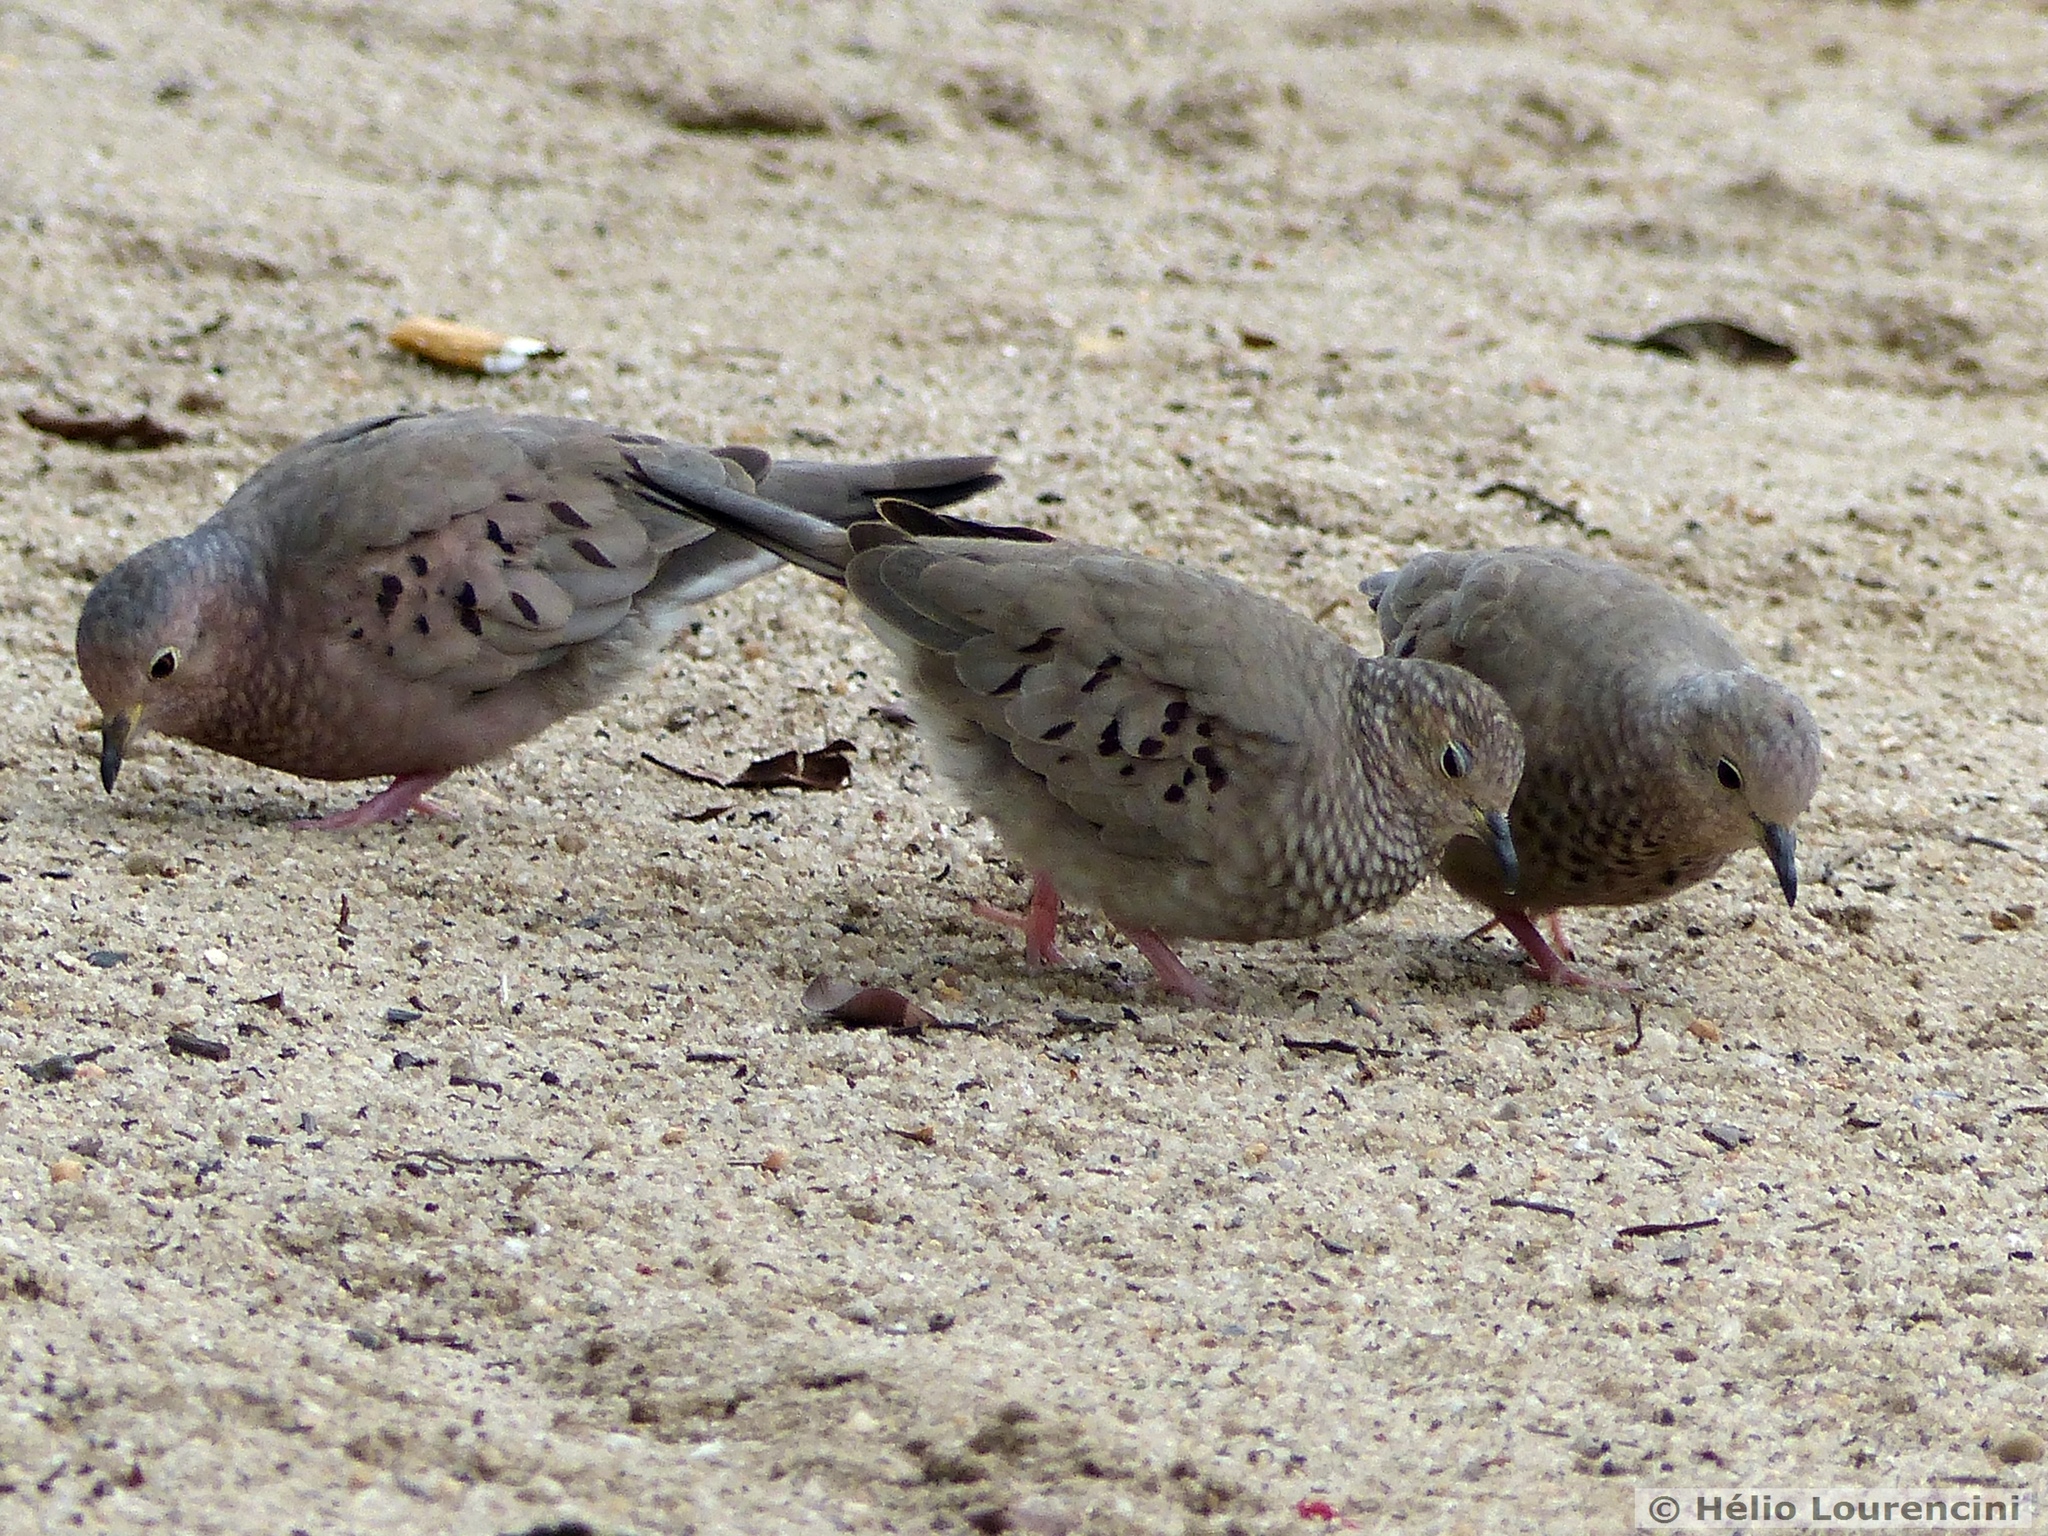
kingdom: Animalia
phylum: Chordata
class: Aves
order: Columbiformes
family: Columbidae
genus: Columbina
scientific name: Columbina passerina
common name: Common ground-dove
